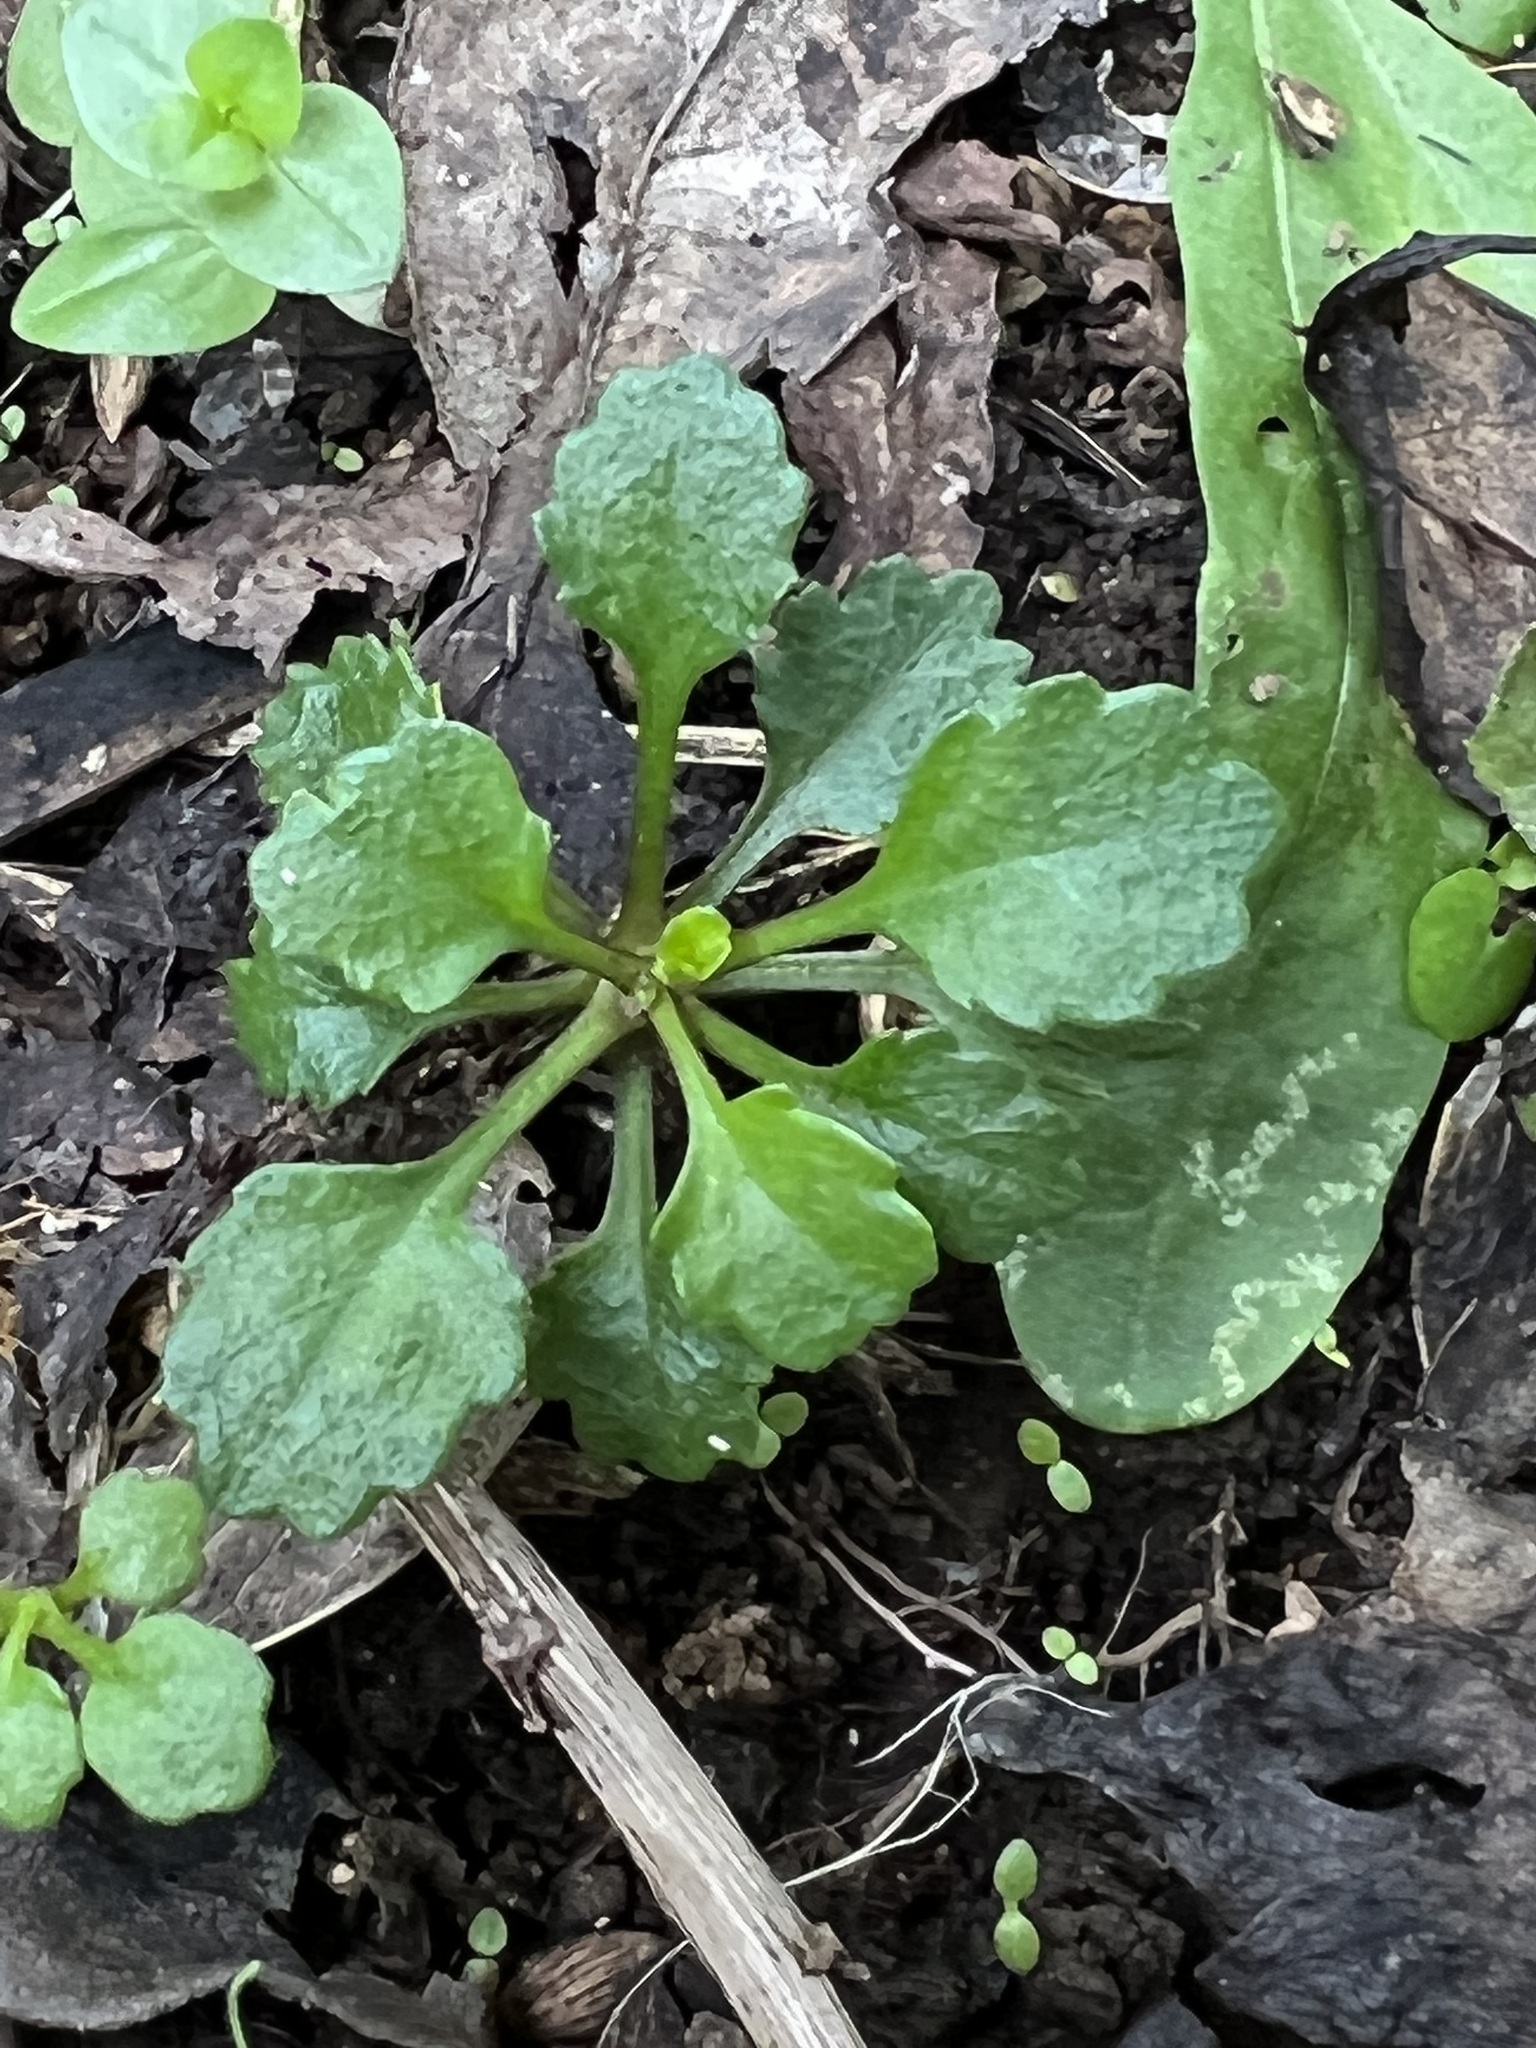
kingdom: Plantae
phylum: Tracheophyta
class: Magnoliopsida
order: Asterales
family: Asteraceae
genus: Leucanthemum
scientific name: Leucanthemum vulgare
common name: Oxeye daisy
